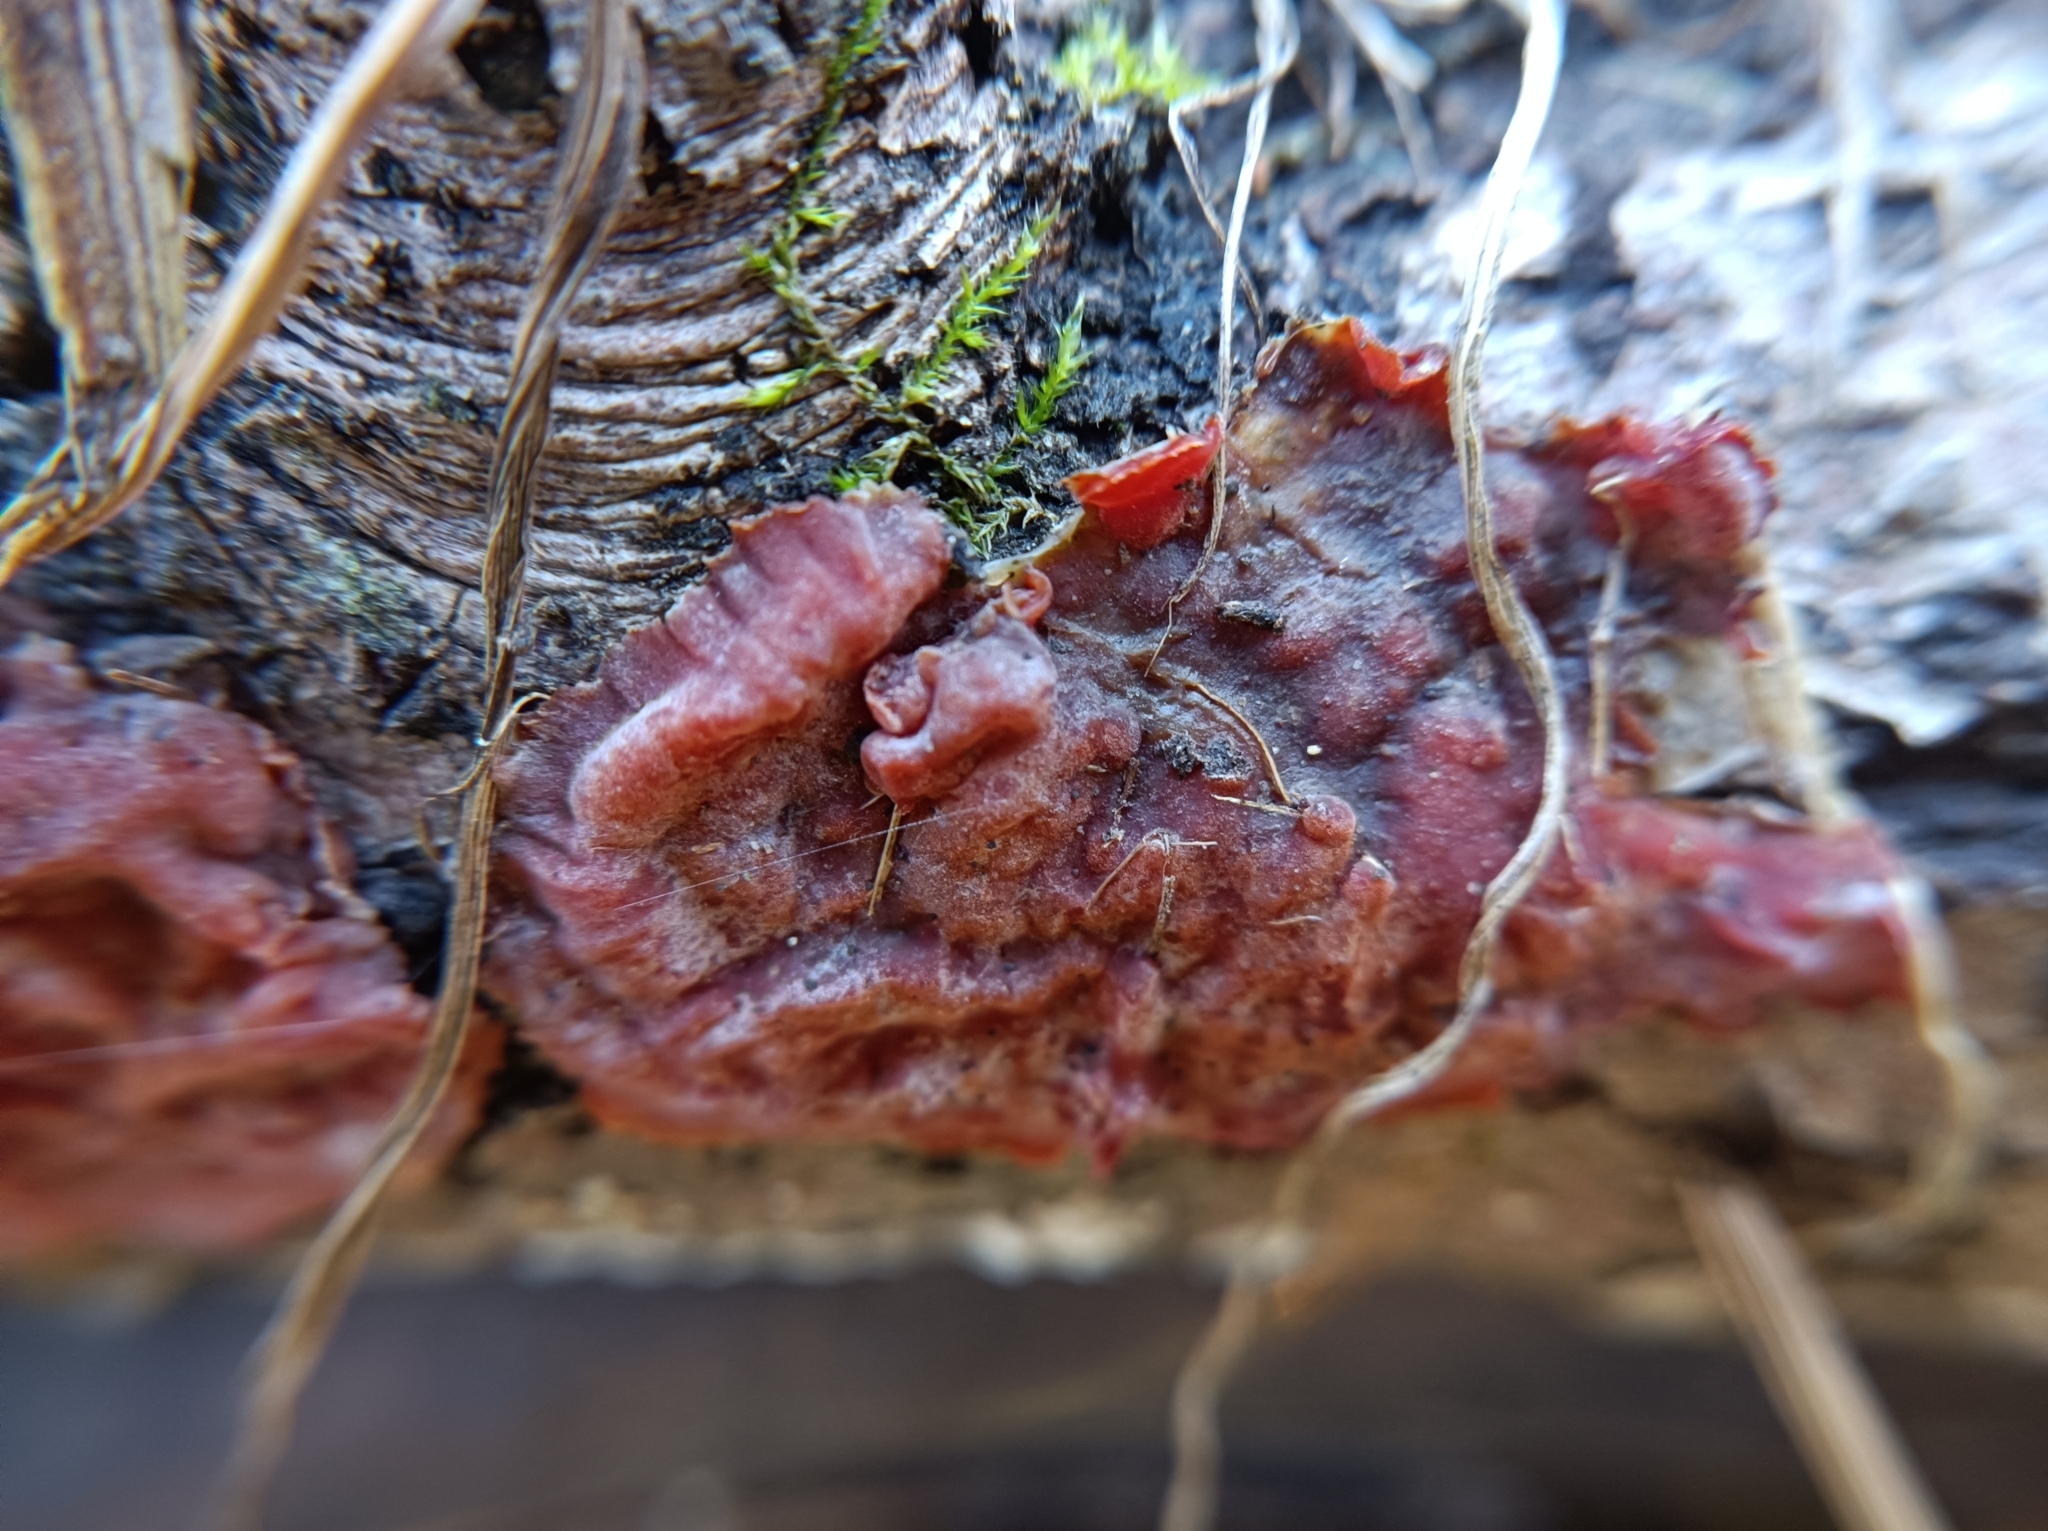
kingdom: Fungi
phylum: Basidiomycota
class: Agaricomycetes
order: Corticiales
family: Vuilleminiaceae
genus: Cytidia
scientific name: Cytidia salicina
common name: Scarlet splash
